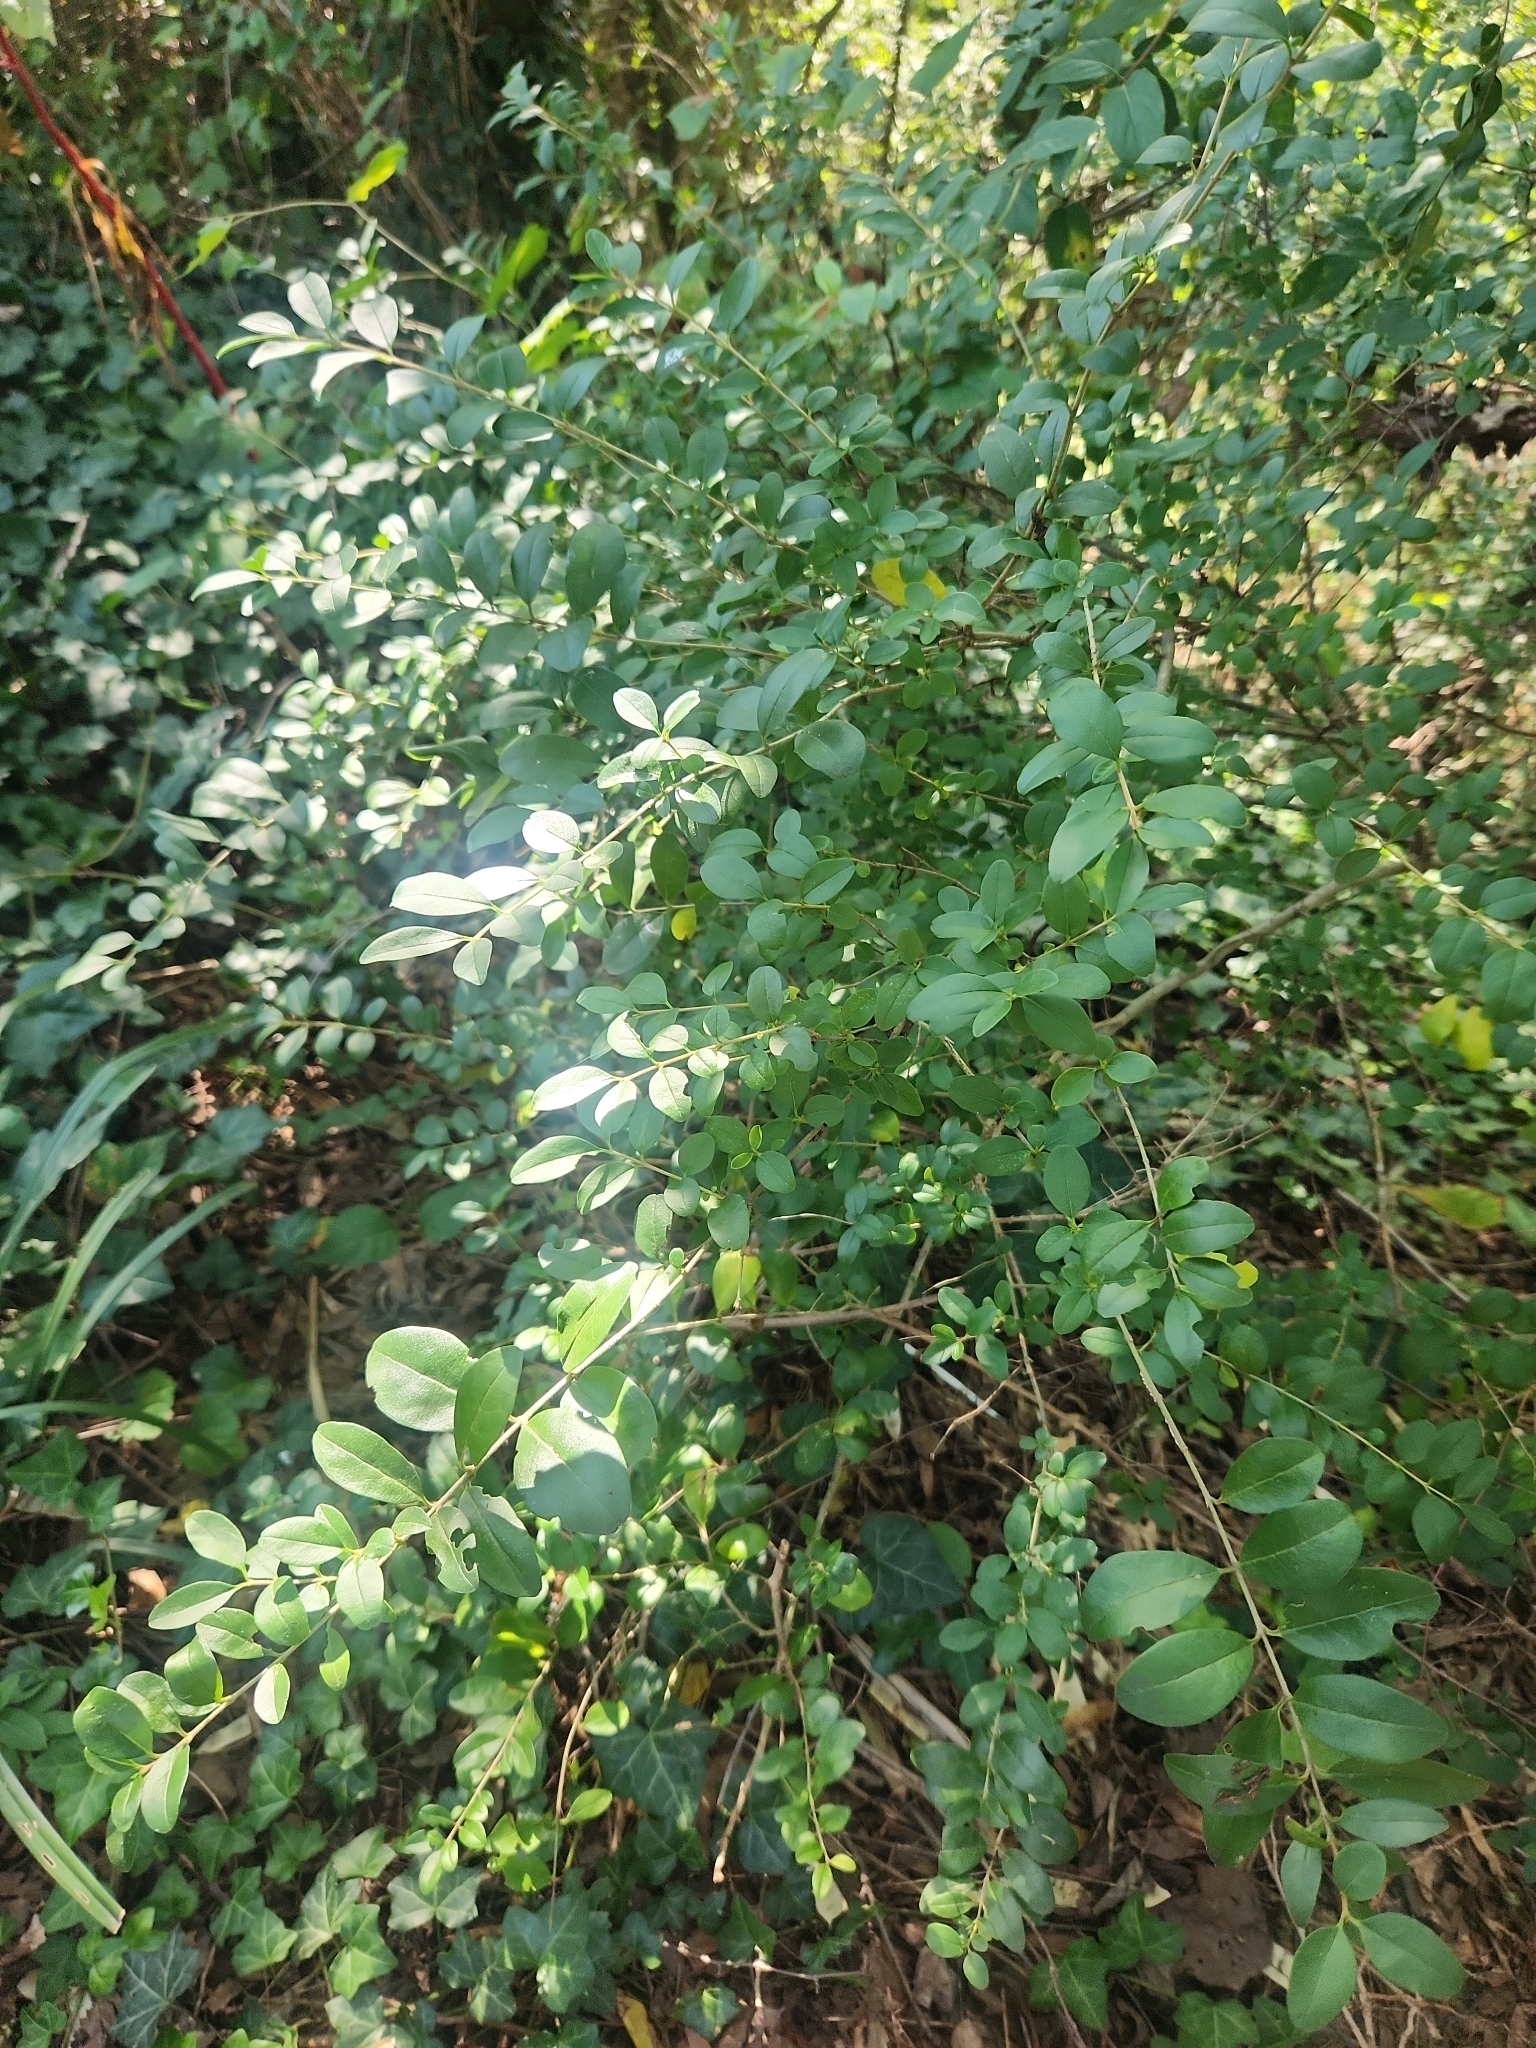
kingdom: Plantae
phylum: Tracheophyta
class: Magnoliopsida
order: Lamiales
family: Oleaceae
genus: Ligustrum
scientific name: Ligustrum sinense
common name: Chinese privet
